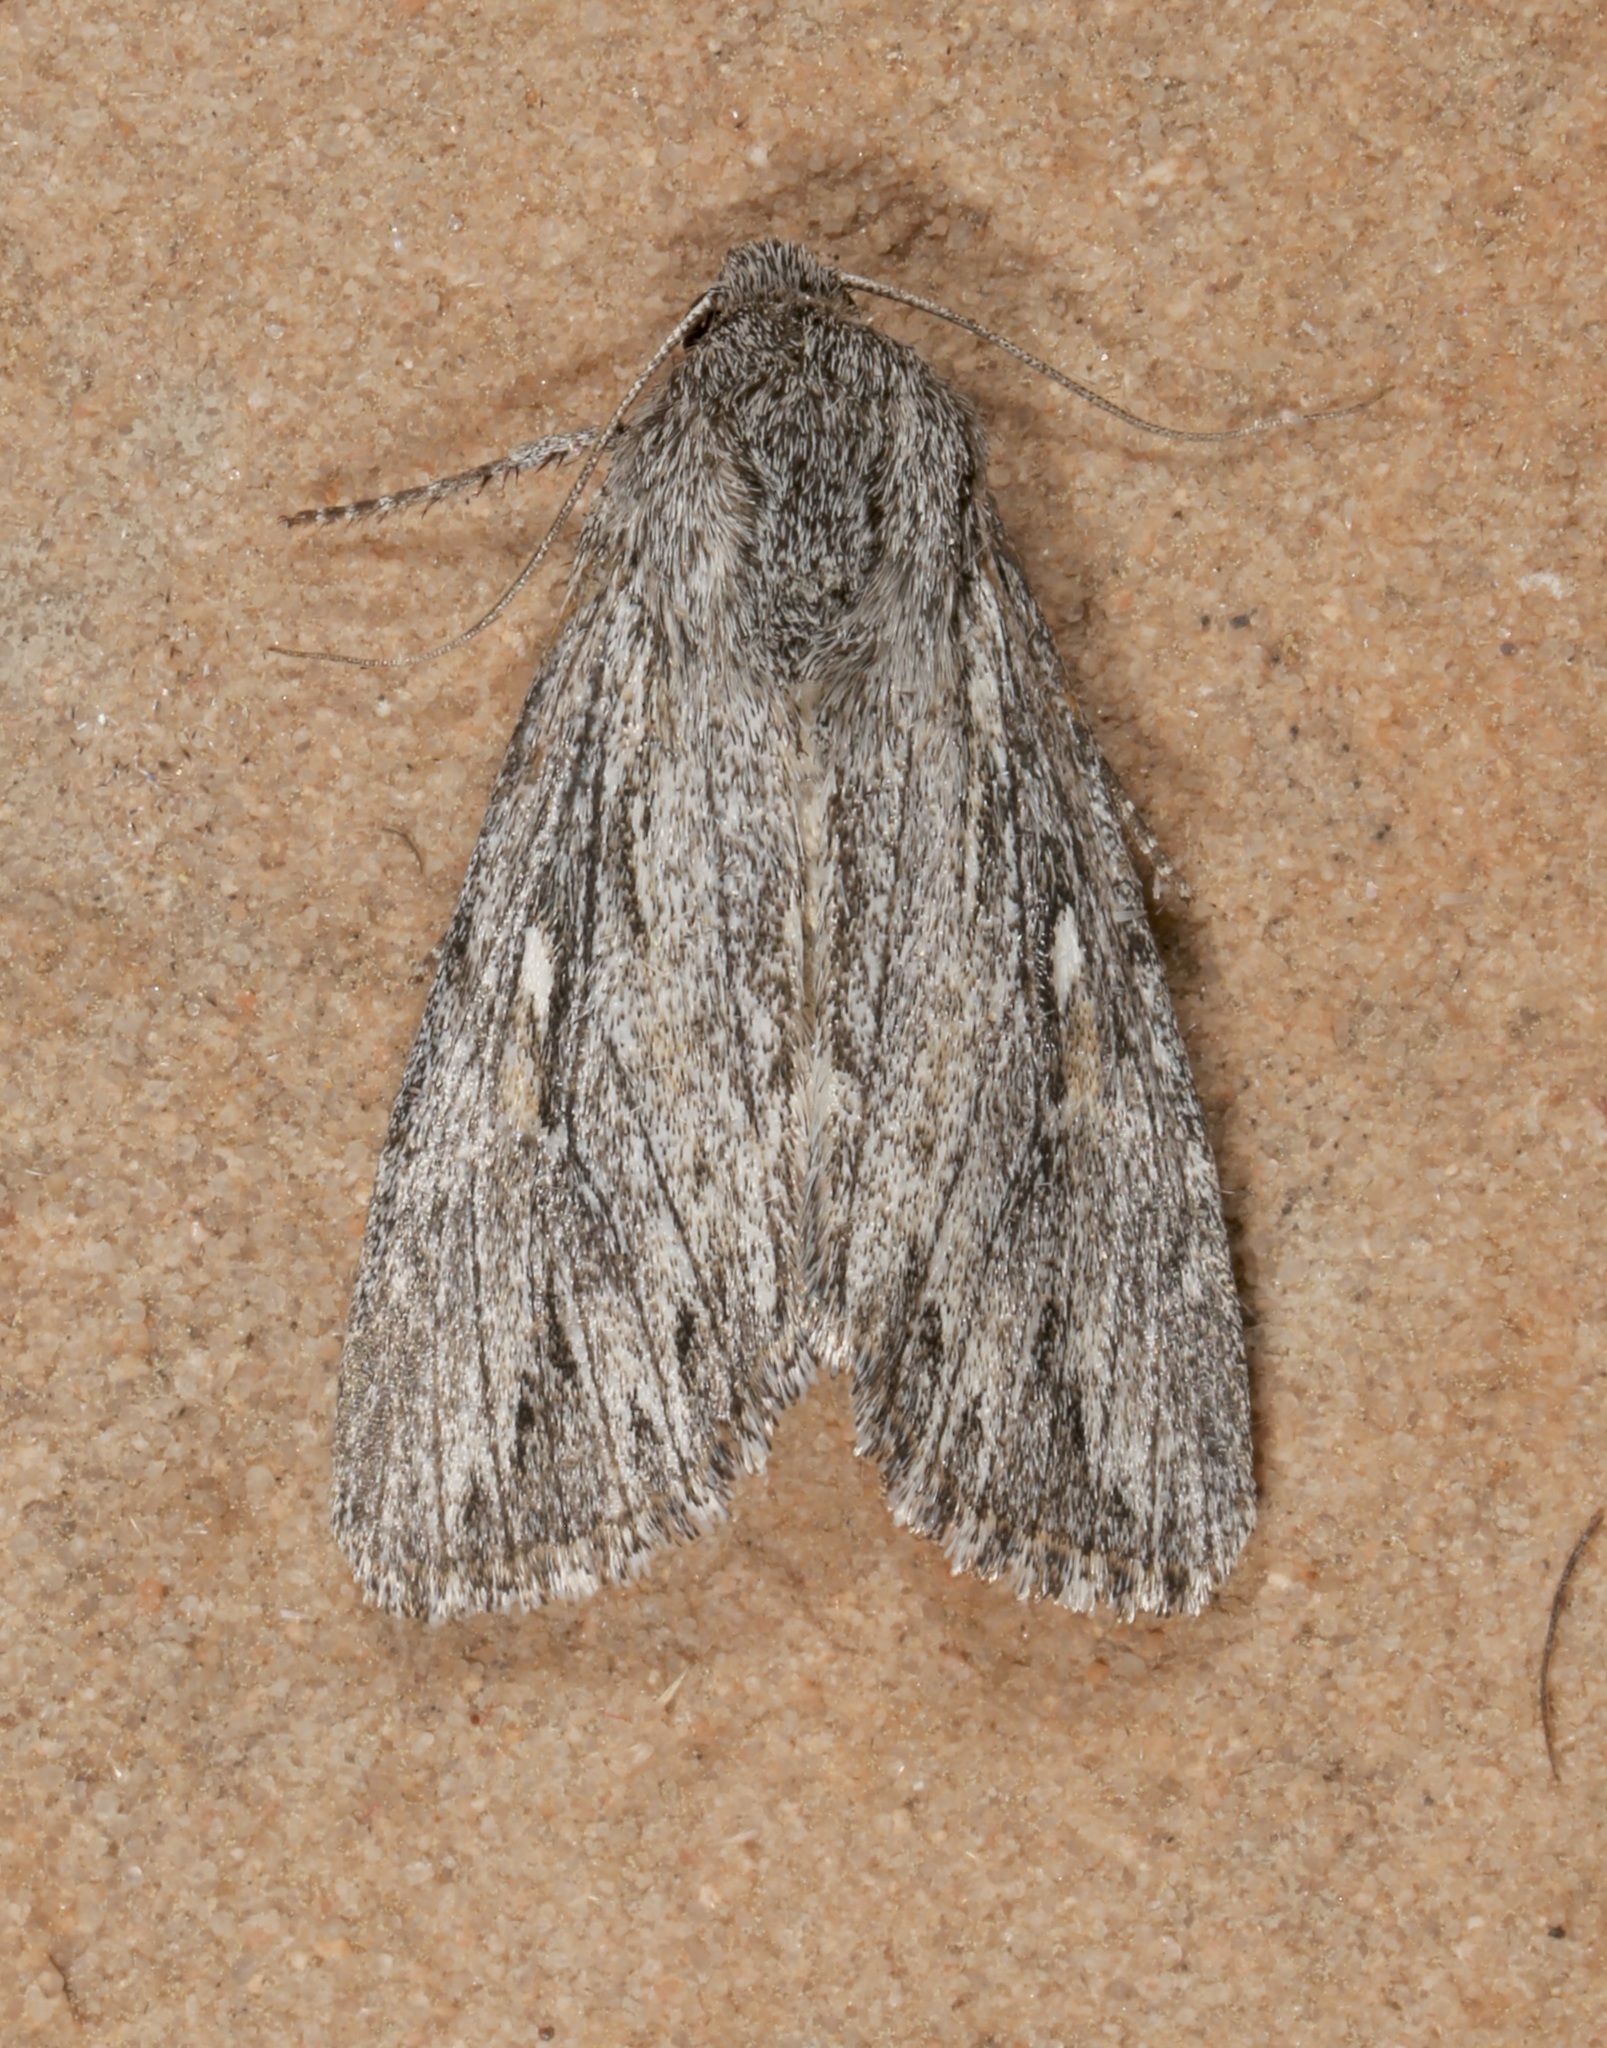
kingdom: Animalia
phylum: Arthropoda
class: Insecta
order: Lepidoptera
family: Noctuidae
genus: Rhizagrotis
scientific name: Rhizagrotis albalis
